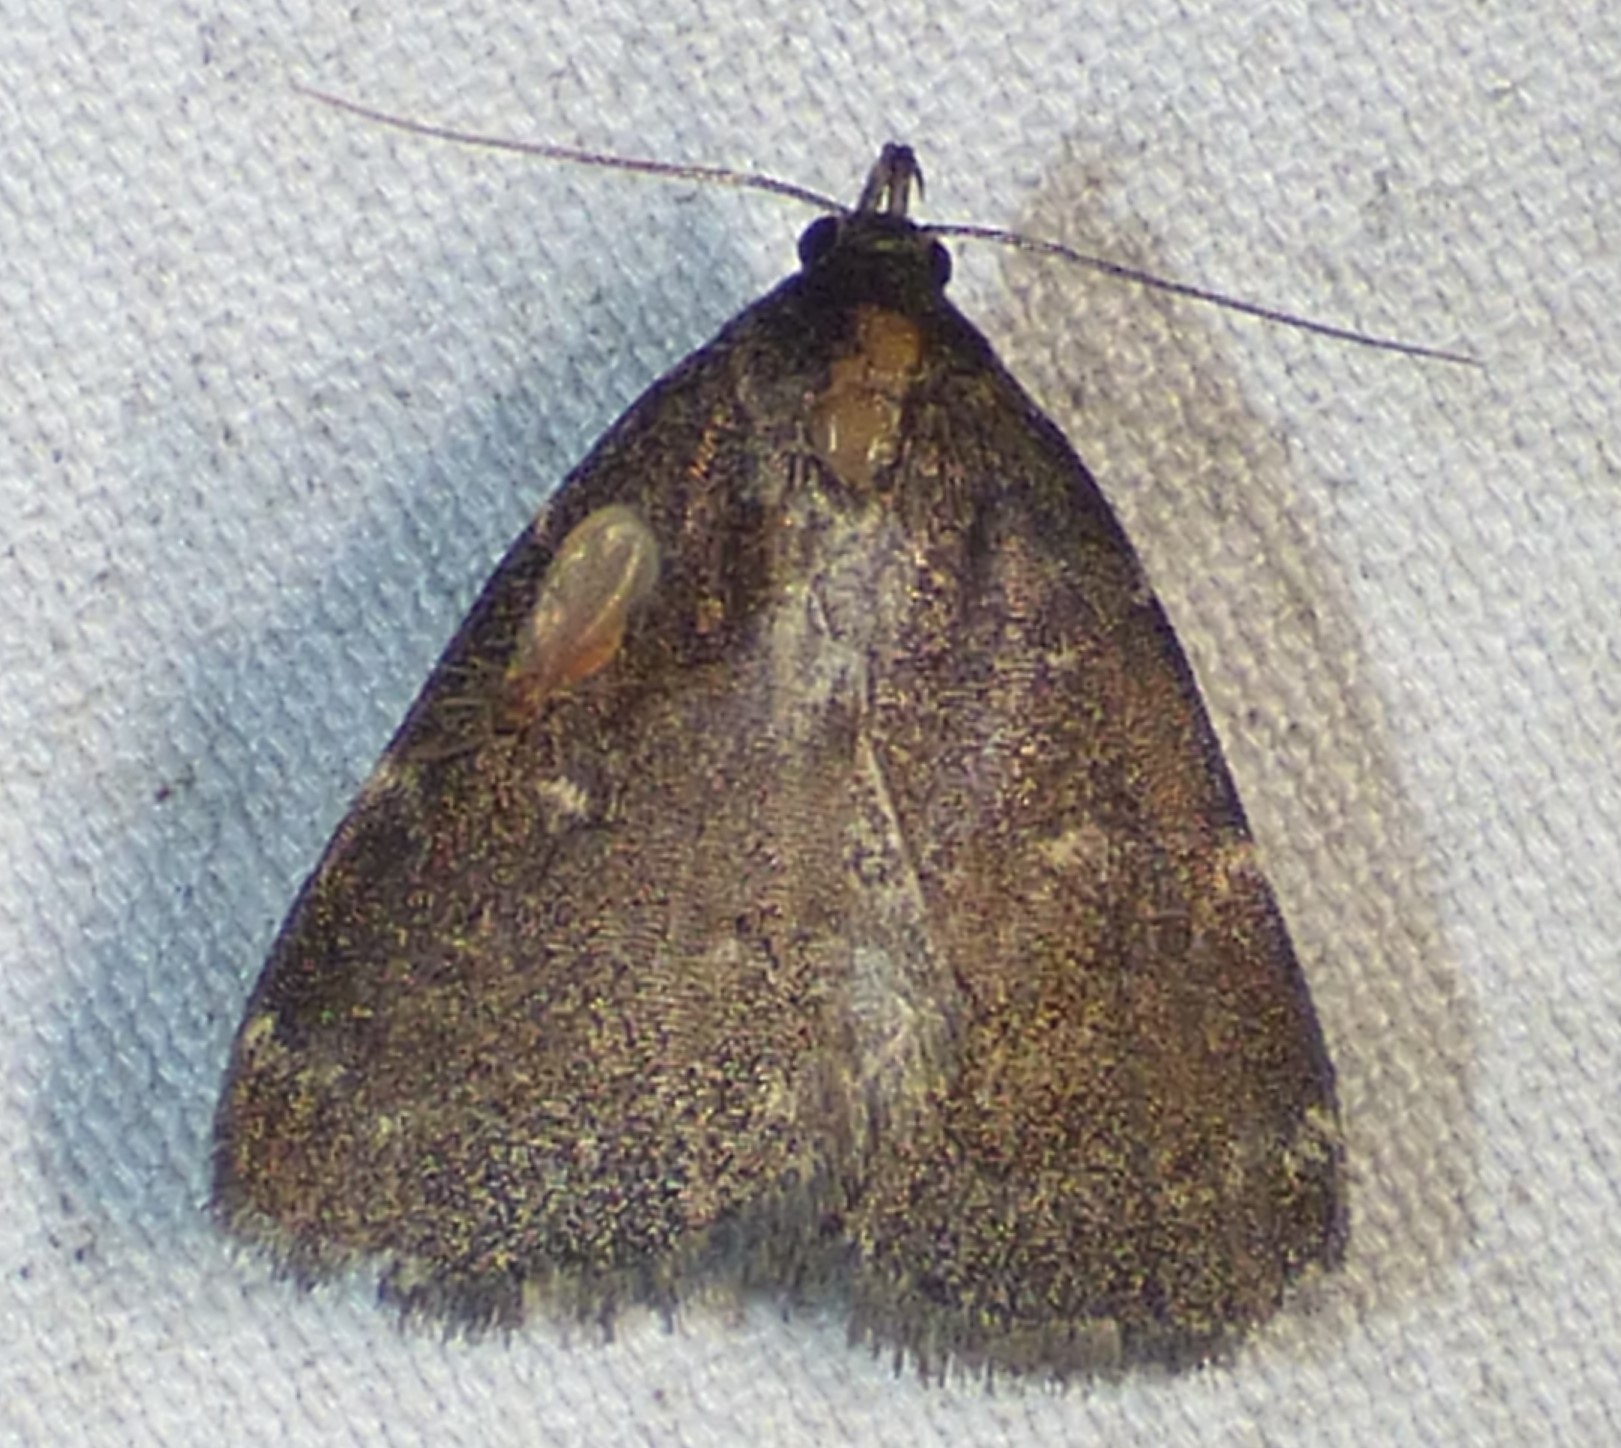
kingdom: Animalia
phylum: Arthropoda
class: Insecta
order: Lepidoptera
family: Erebidae
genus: Idia
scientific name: Idia julia
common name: Julia's idia moth
